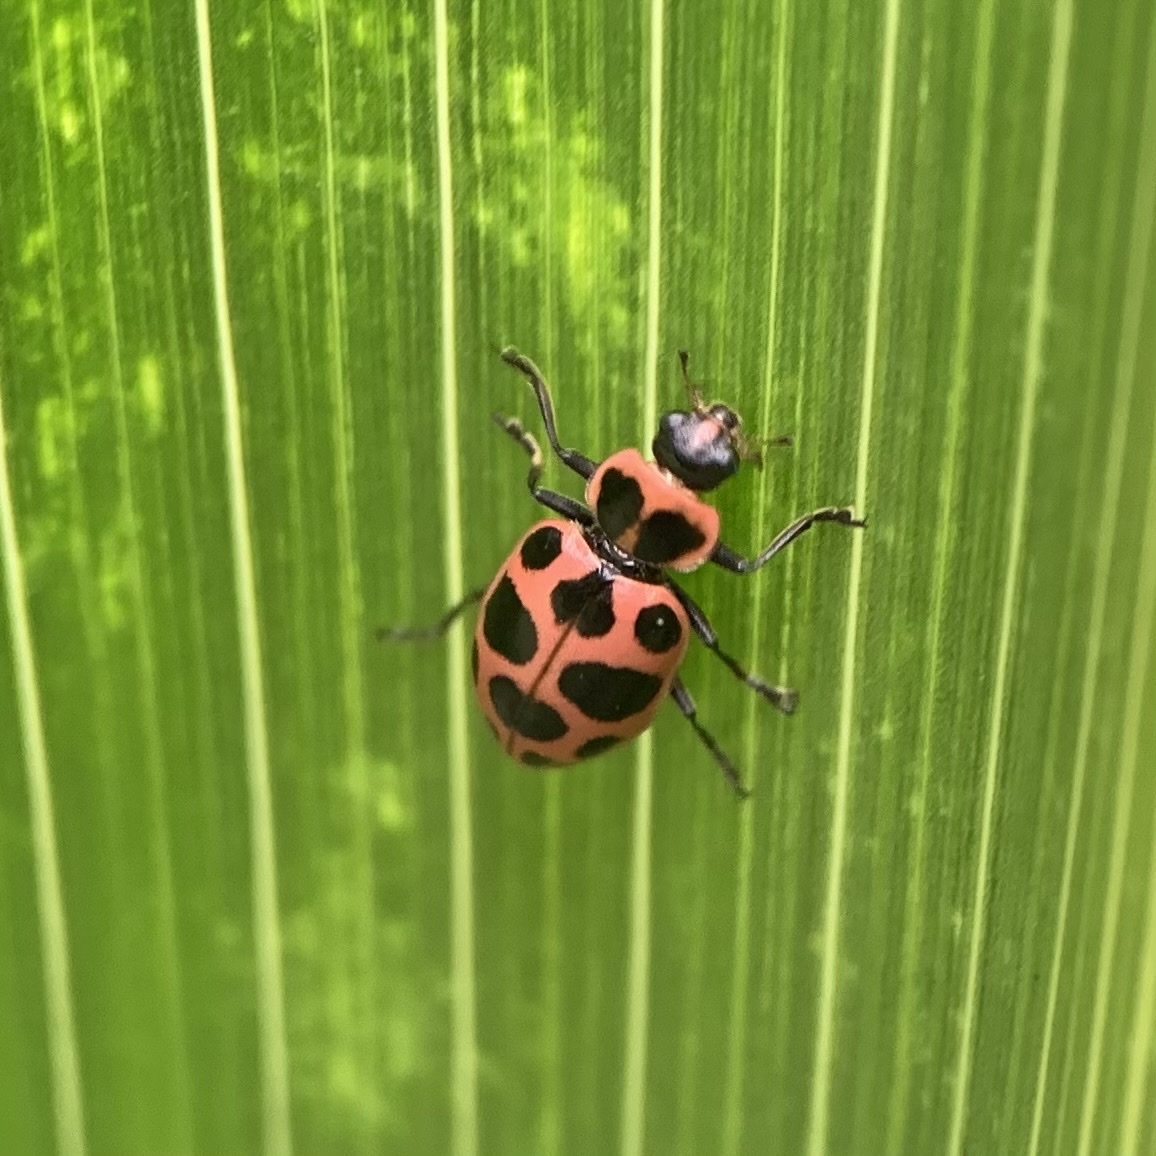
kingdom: Animalia
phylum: Arthropoda
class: Insecta
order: Coleoptera
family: Coccinellidae
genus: Coleomegilla
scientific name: Coleomegilla maculata
